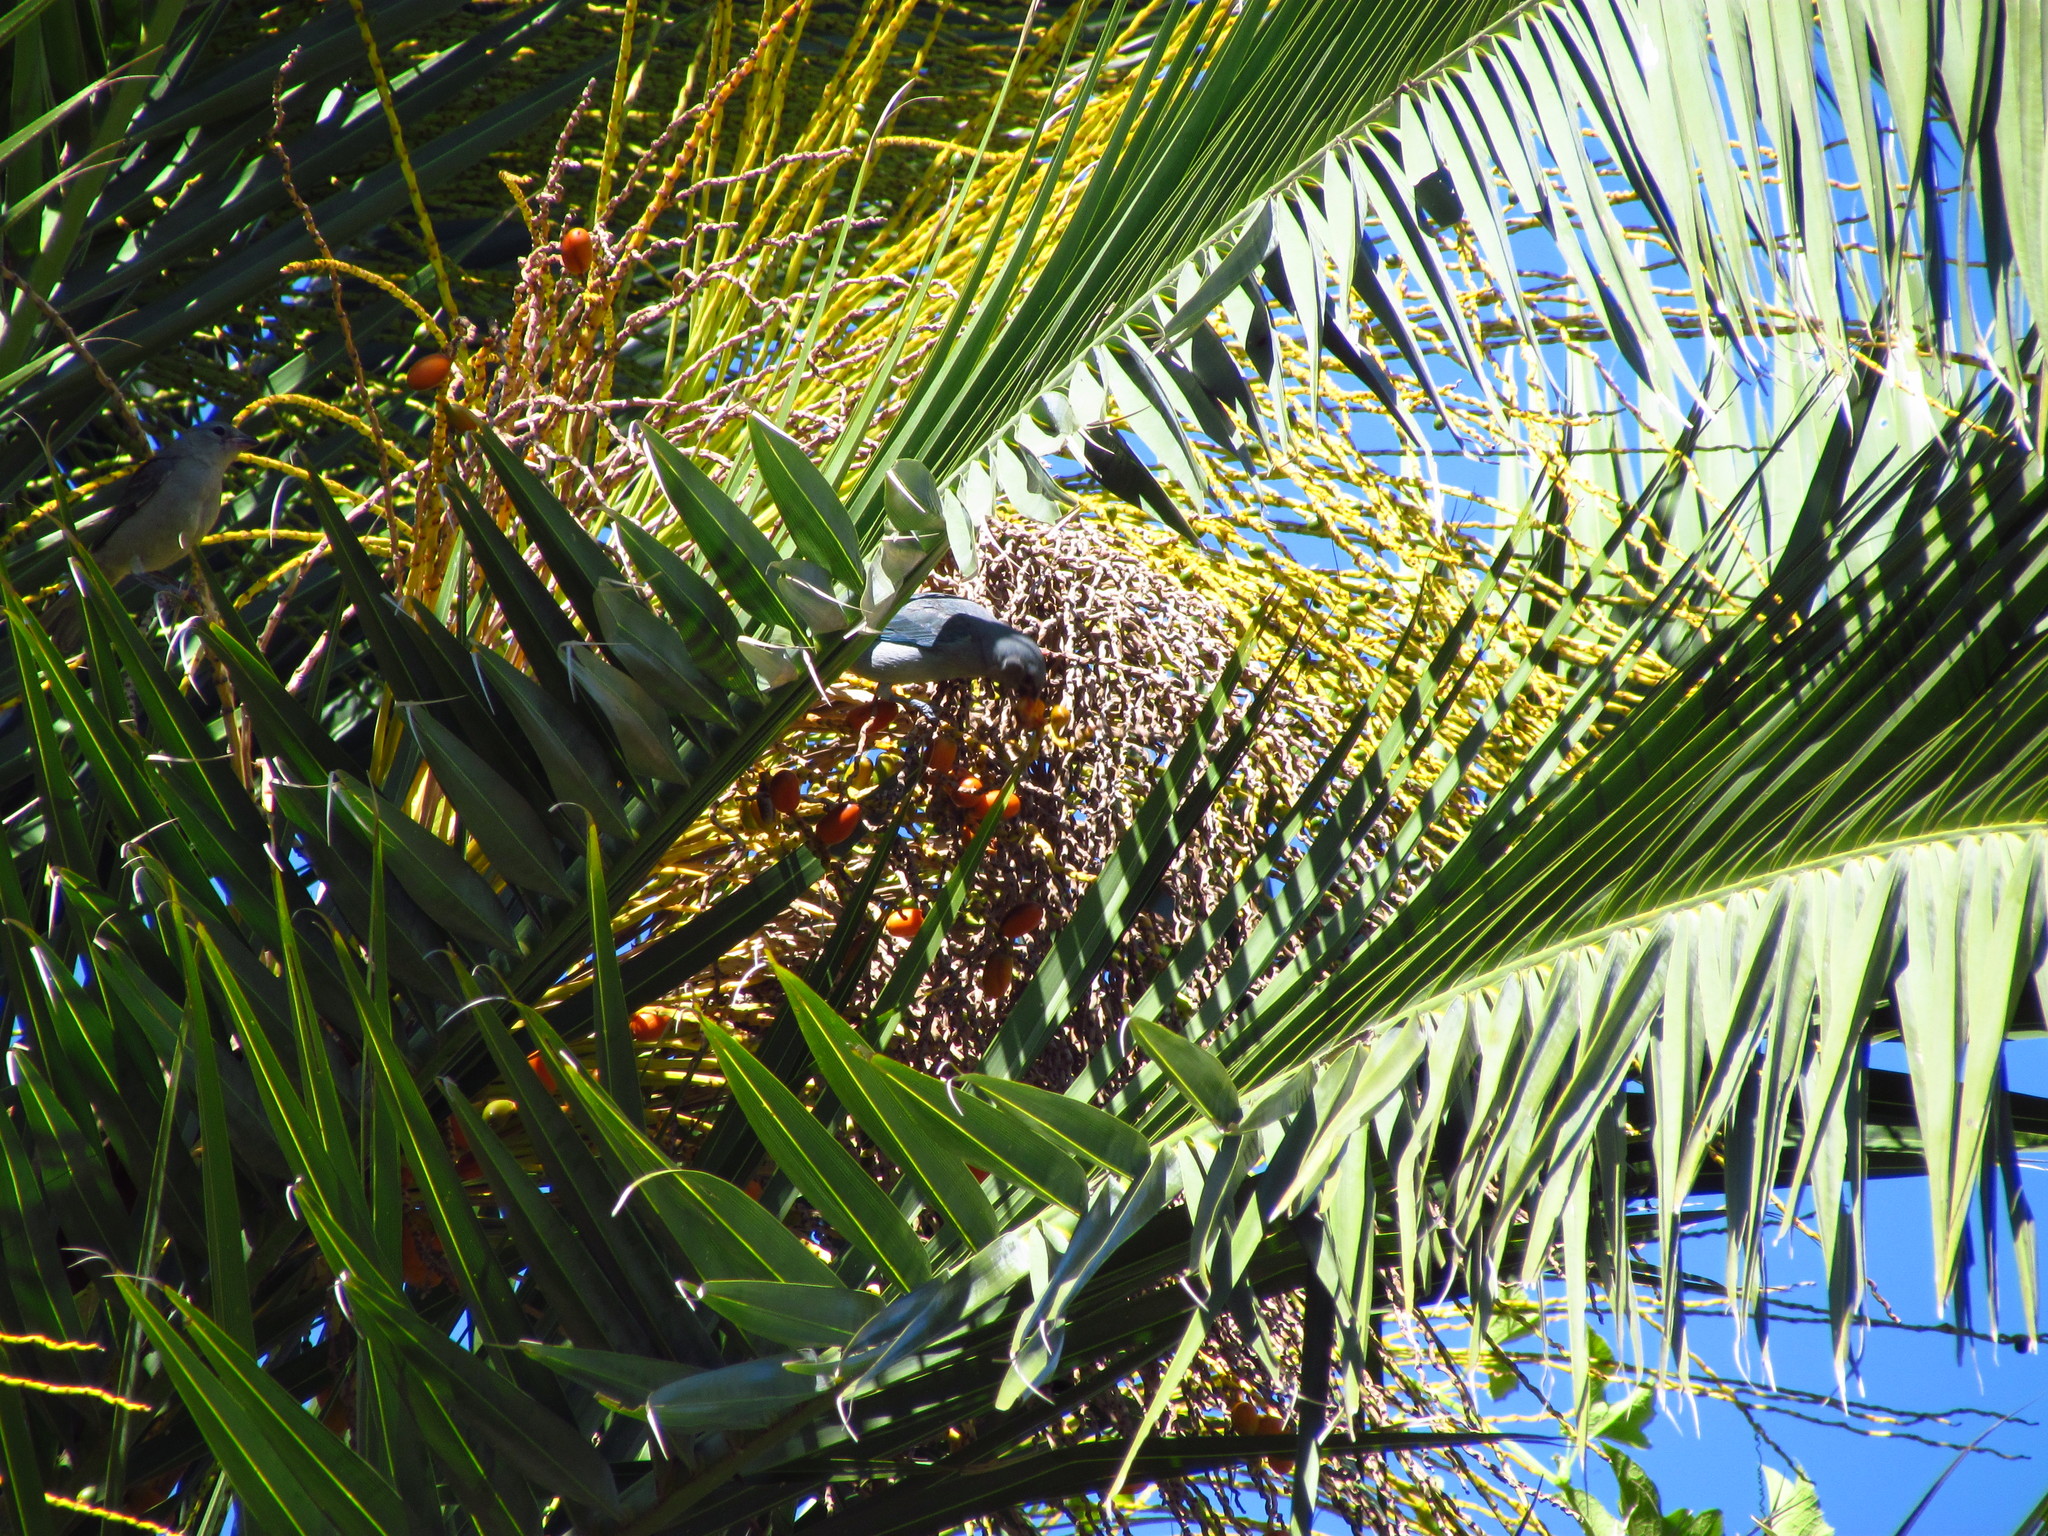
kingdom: Animalia
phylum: Chordata
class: Aves
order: Passeriformes
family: Thraupidae
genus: Thraupis
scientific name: Thraupis sayaca
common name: Sayaca tanager
